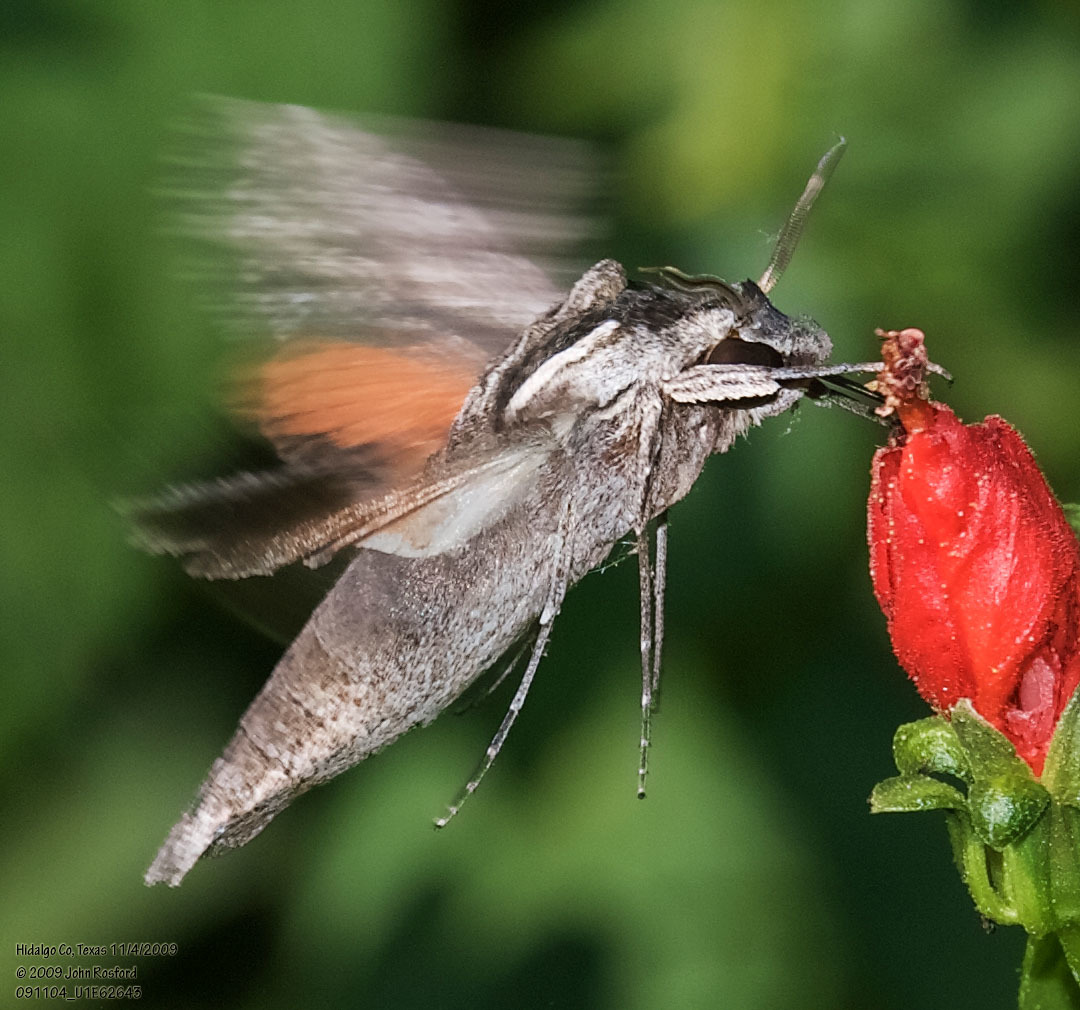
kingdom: Animalia
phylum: Arthropoda
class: Insecta
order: Lepidoptera
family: Sphingidae
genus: Erinnyis
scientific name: Erinnyis obscura
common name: Obscure sphinx
